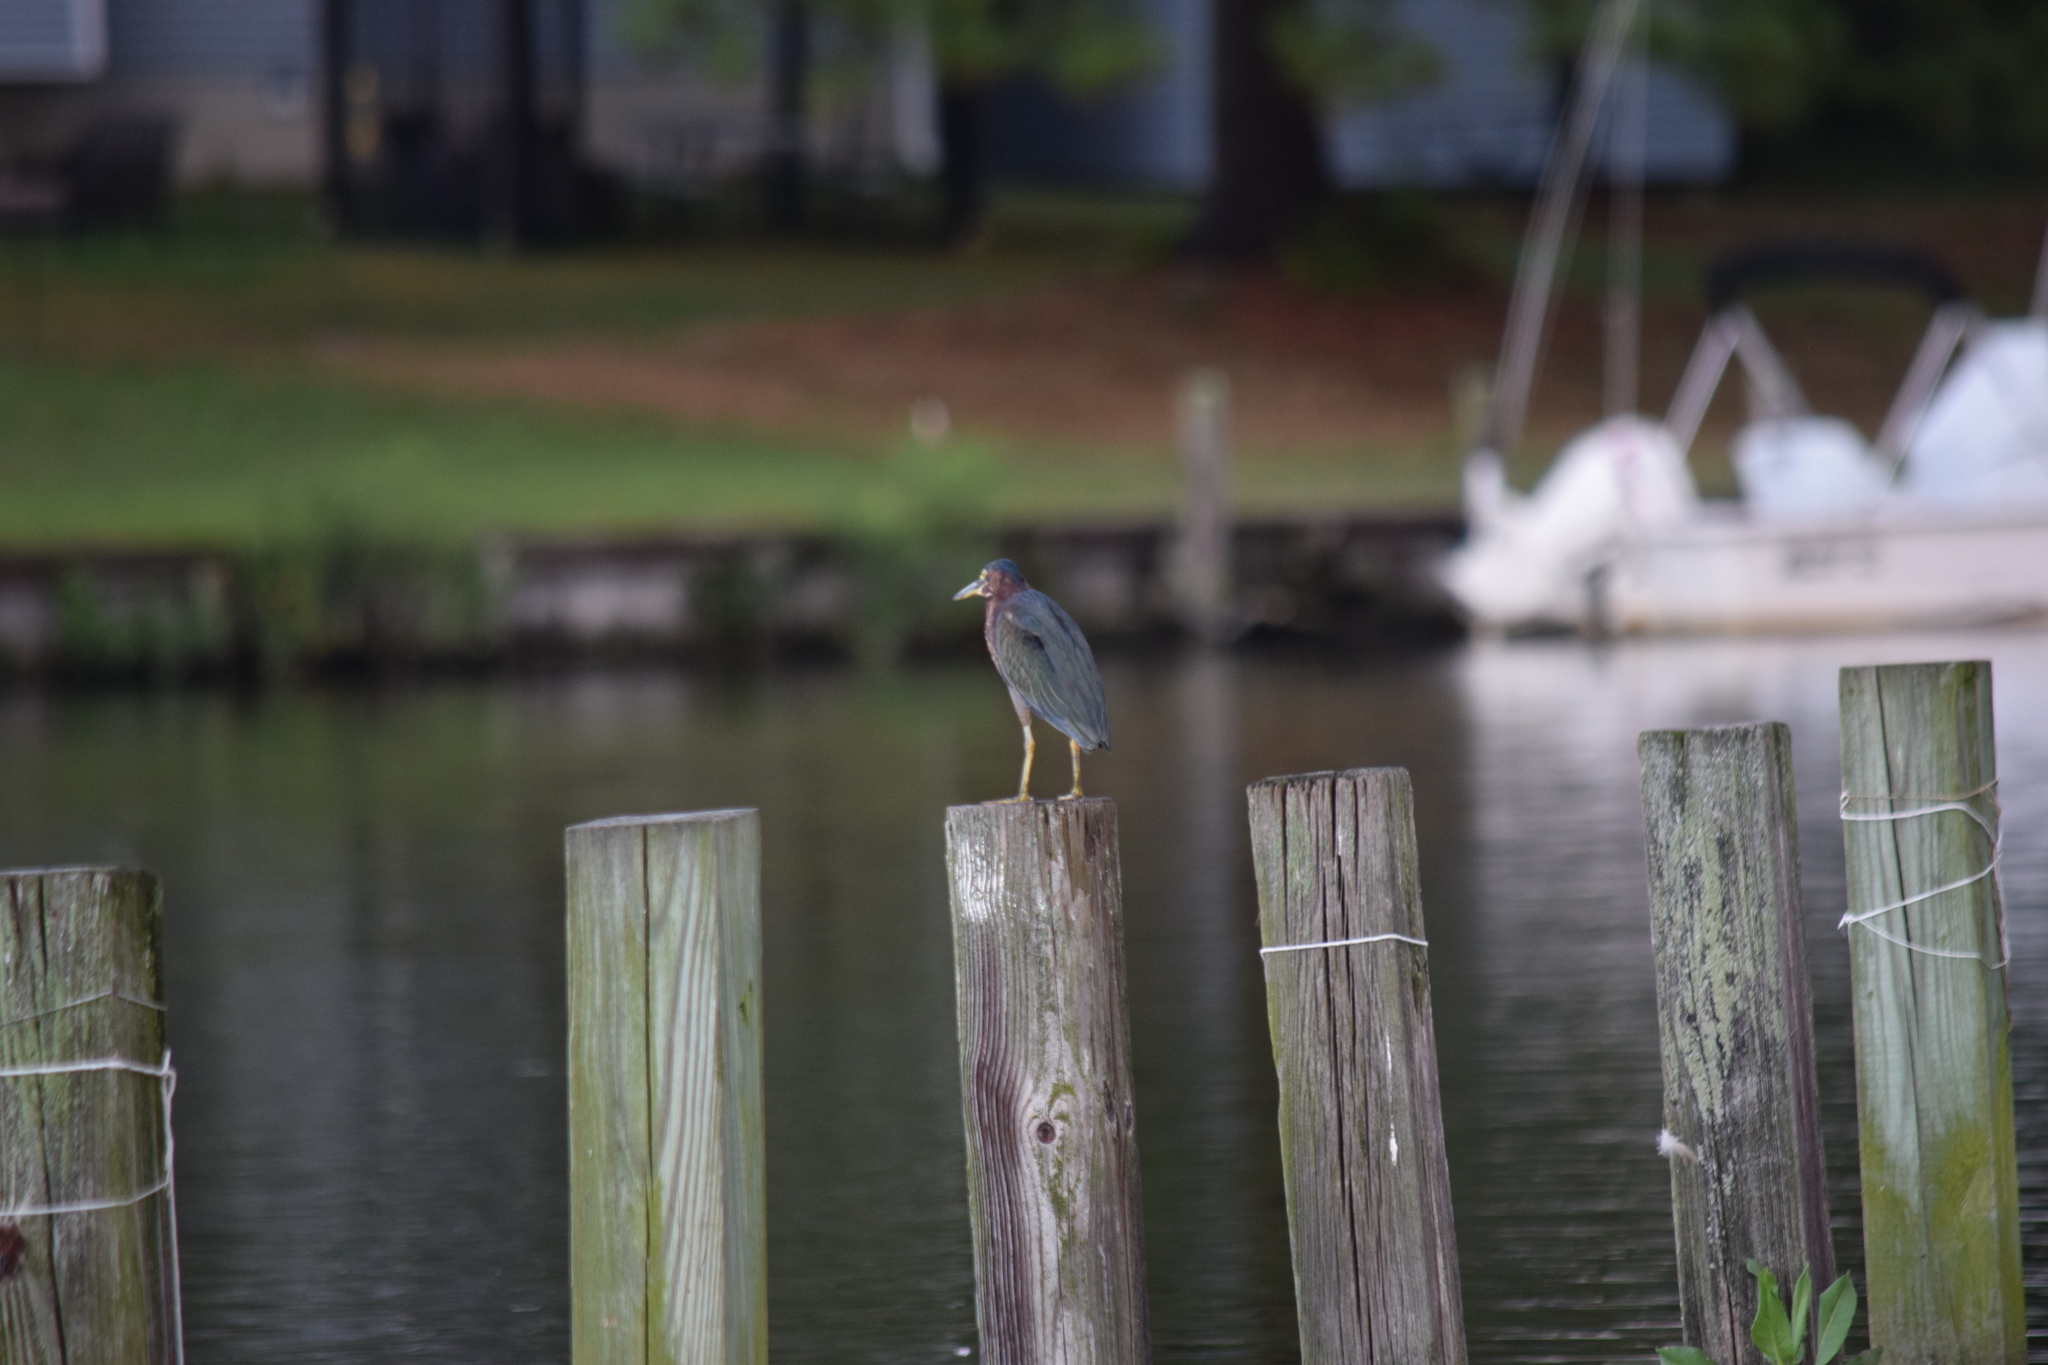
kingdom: Animalia
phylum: Chordata
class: Aves
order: Pelecaniformes
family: Ardeidae
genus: Butorides
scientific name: Butorides virescens
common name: Green heron
